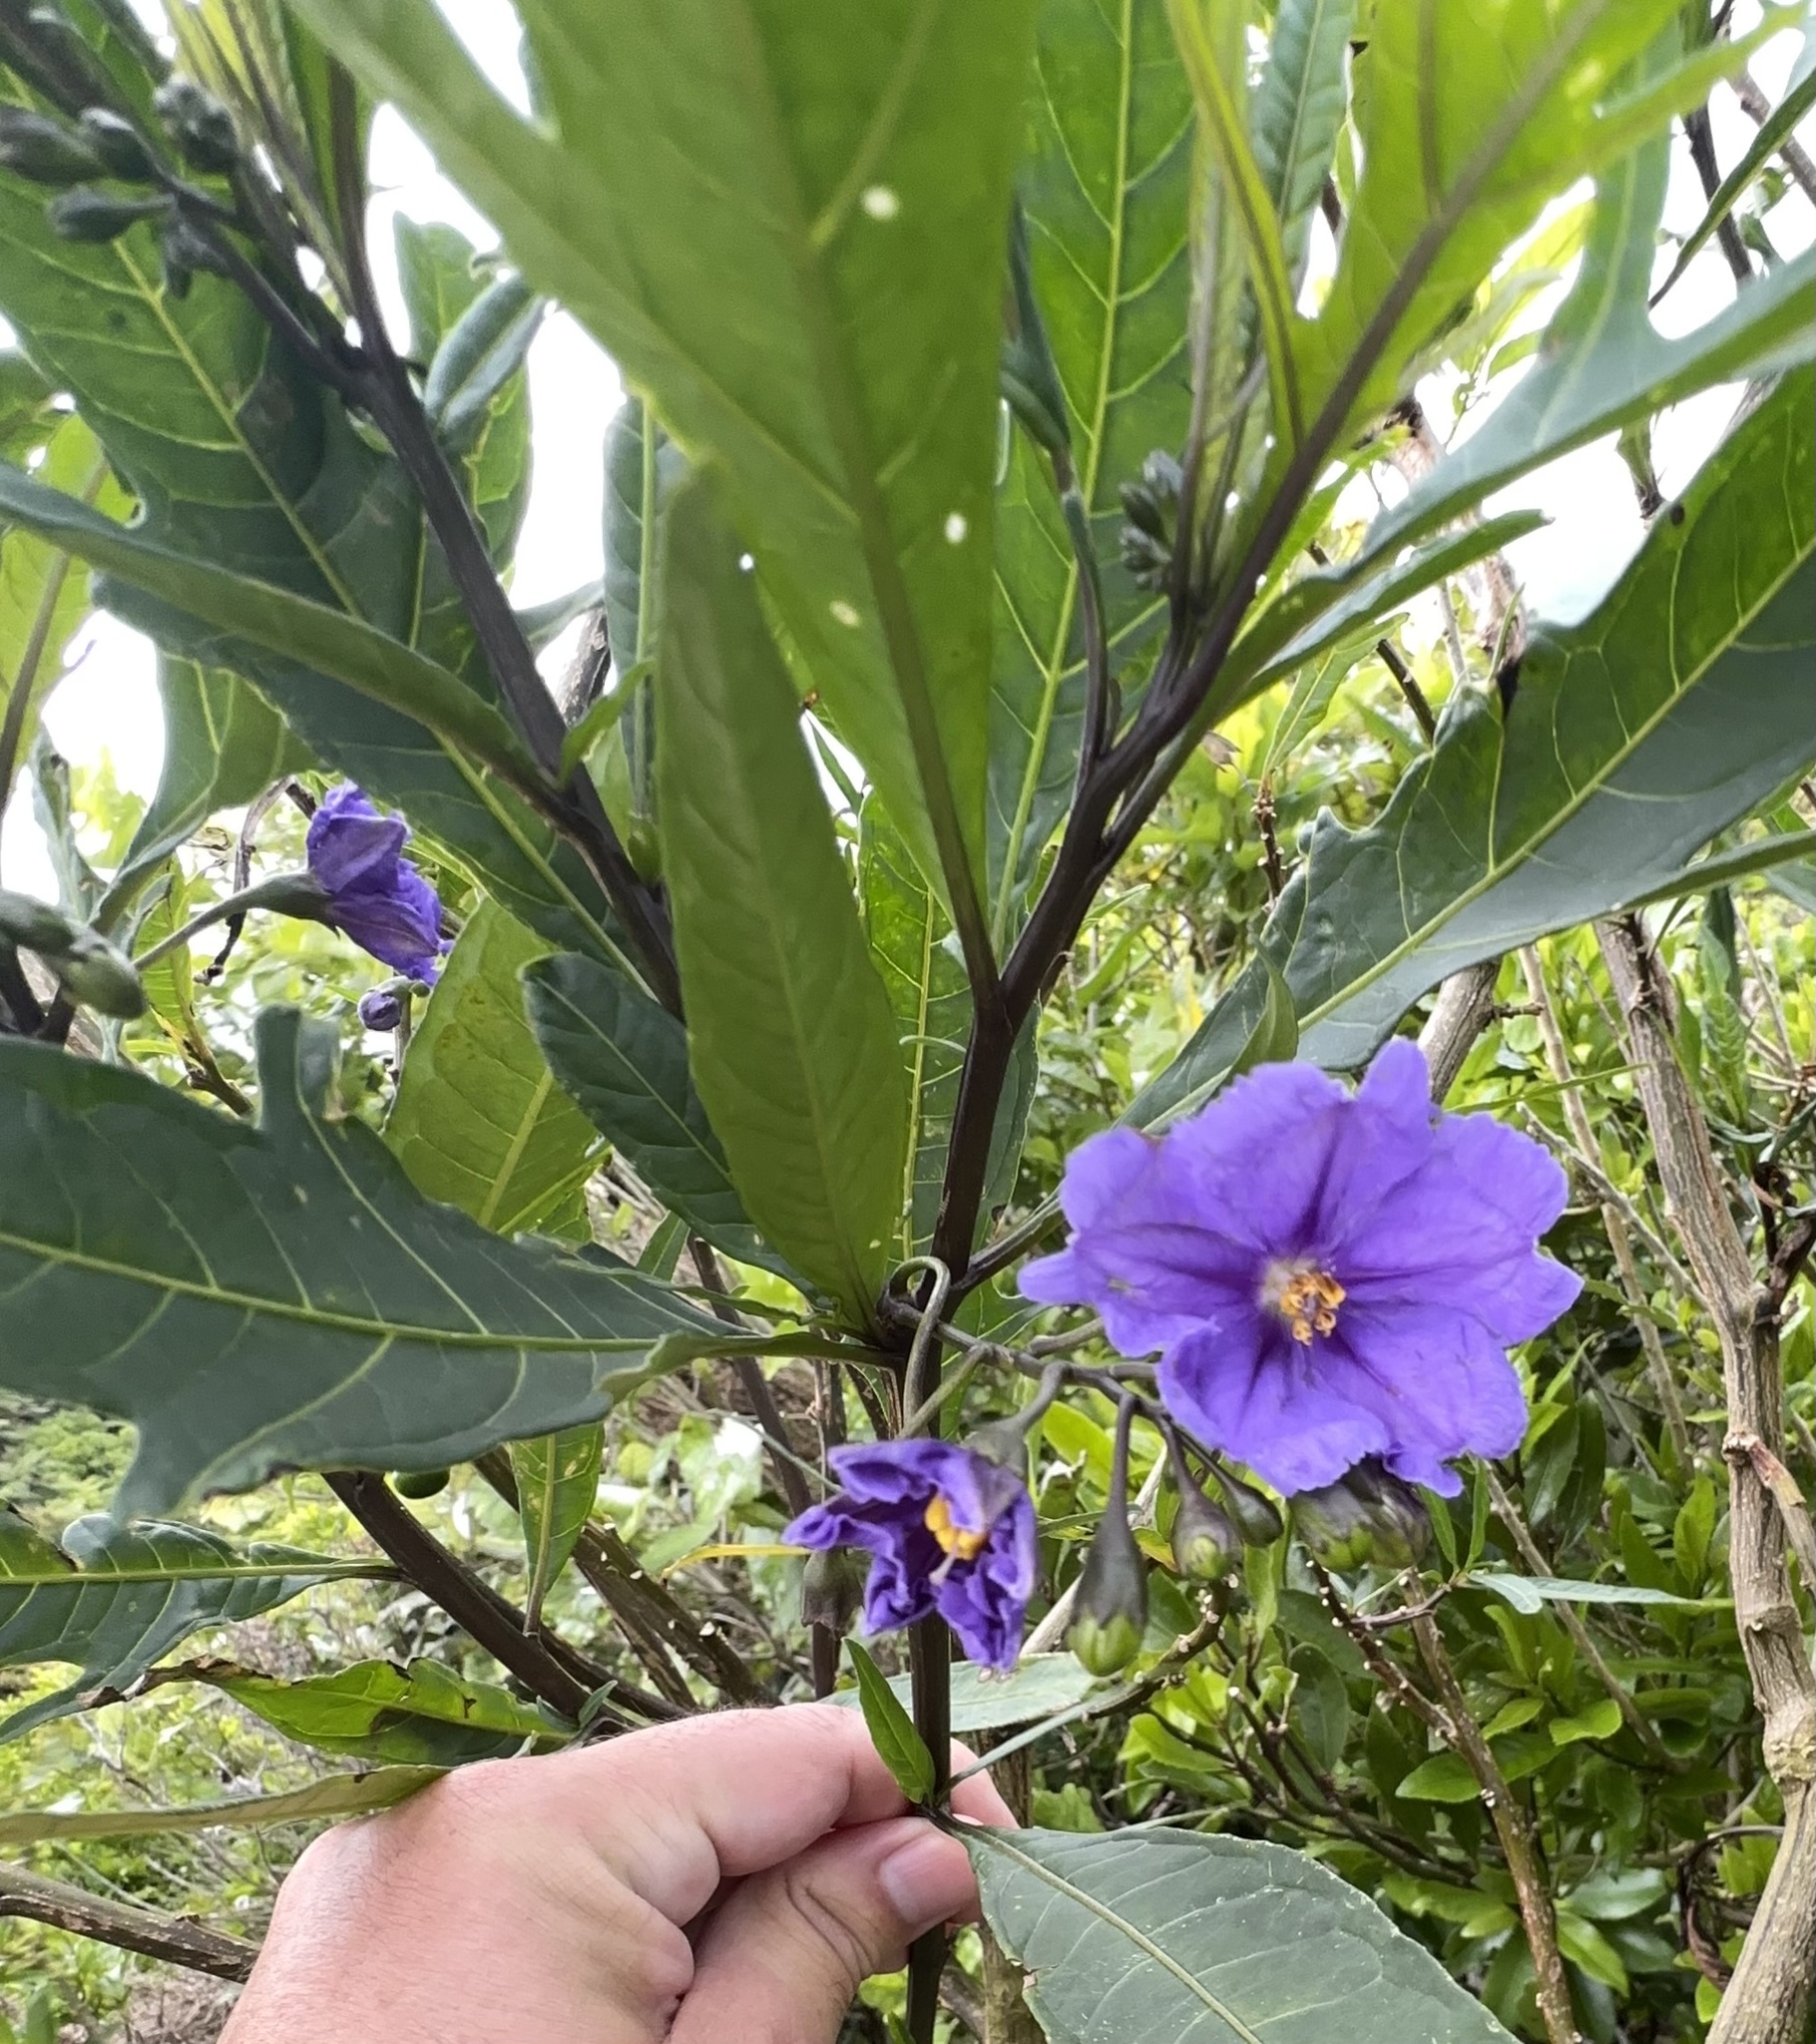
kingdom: Plantae
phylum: Tracheophyta
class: Magnoliopsida
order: Solanales
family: Solanaceae
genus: Solanum
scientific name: Solanum laciniatum
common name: Kangaroo-apple
